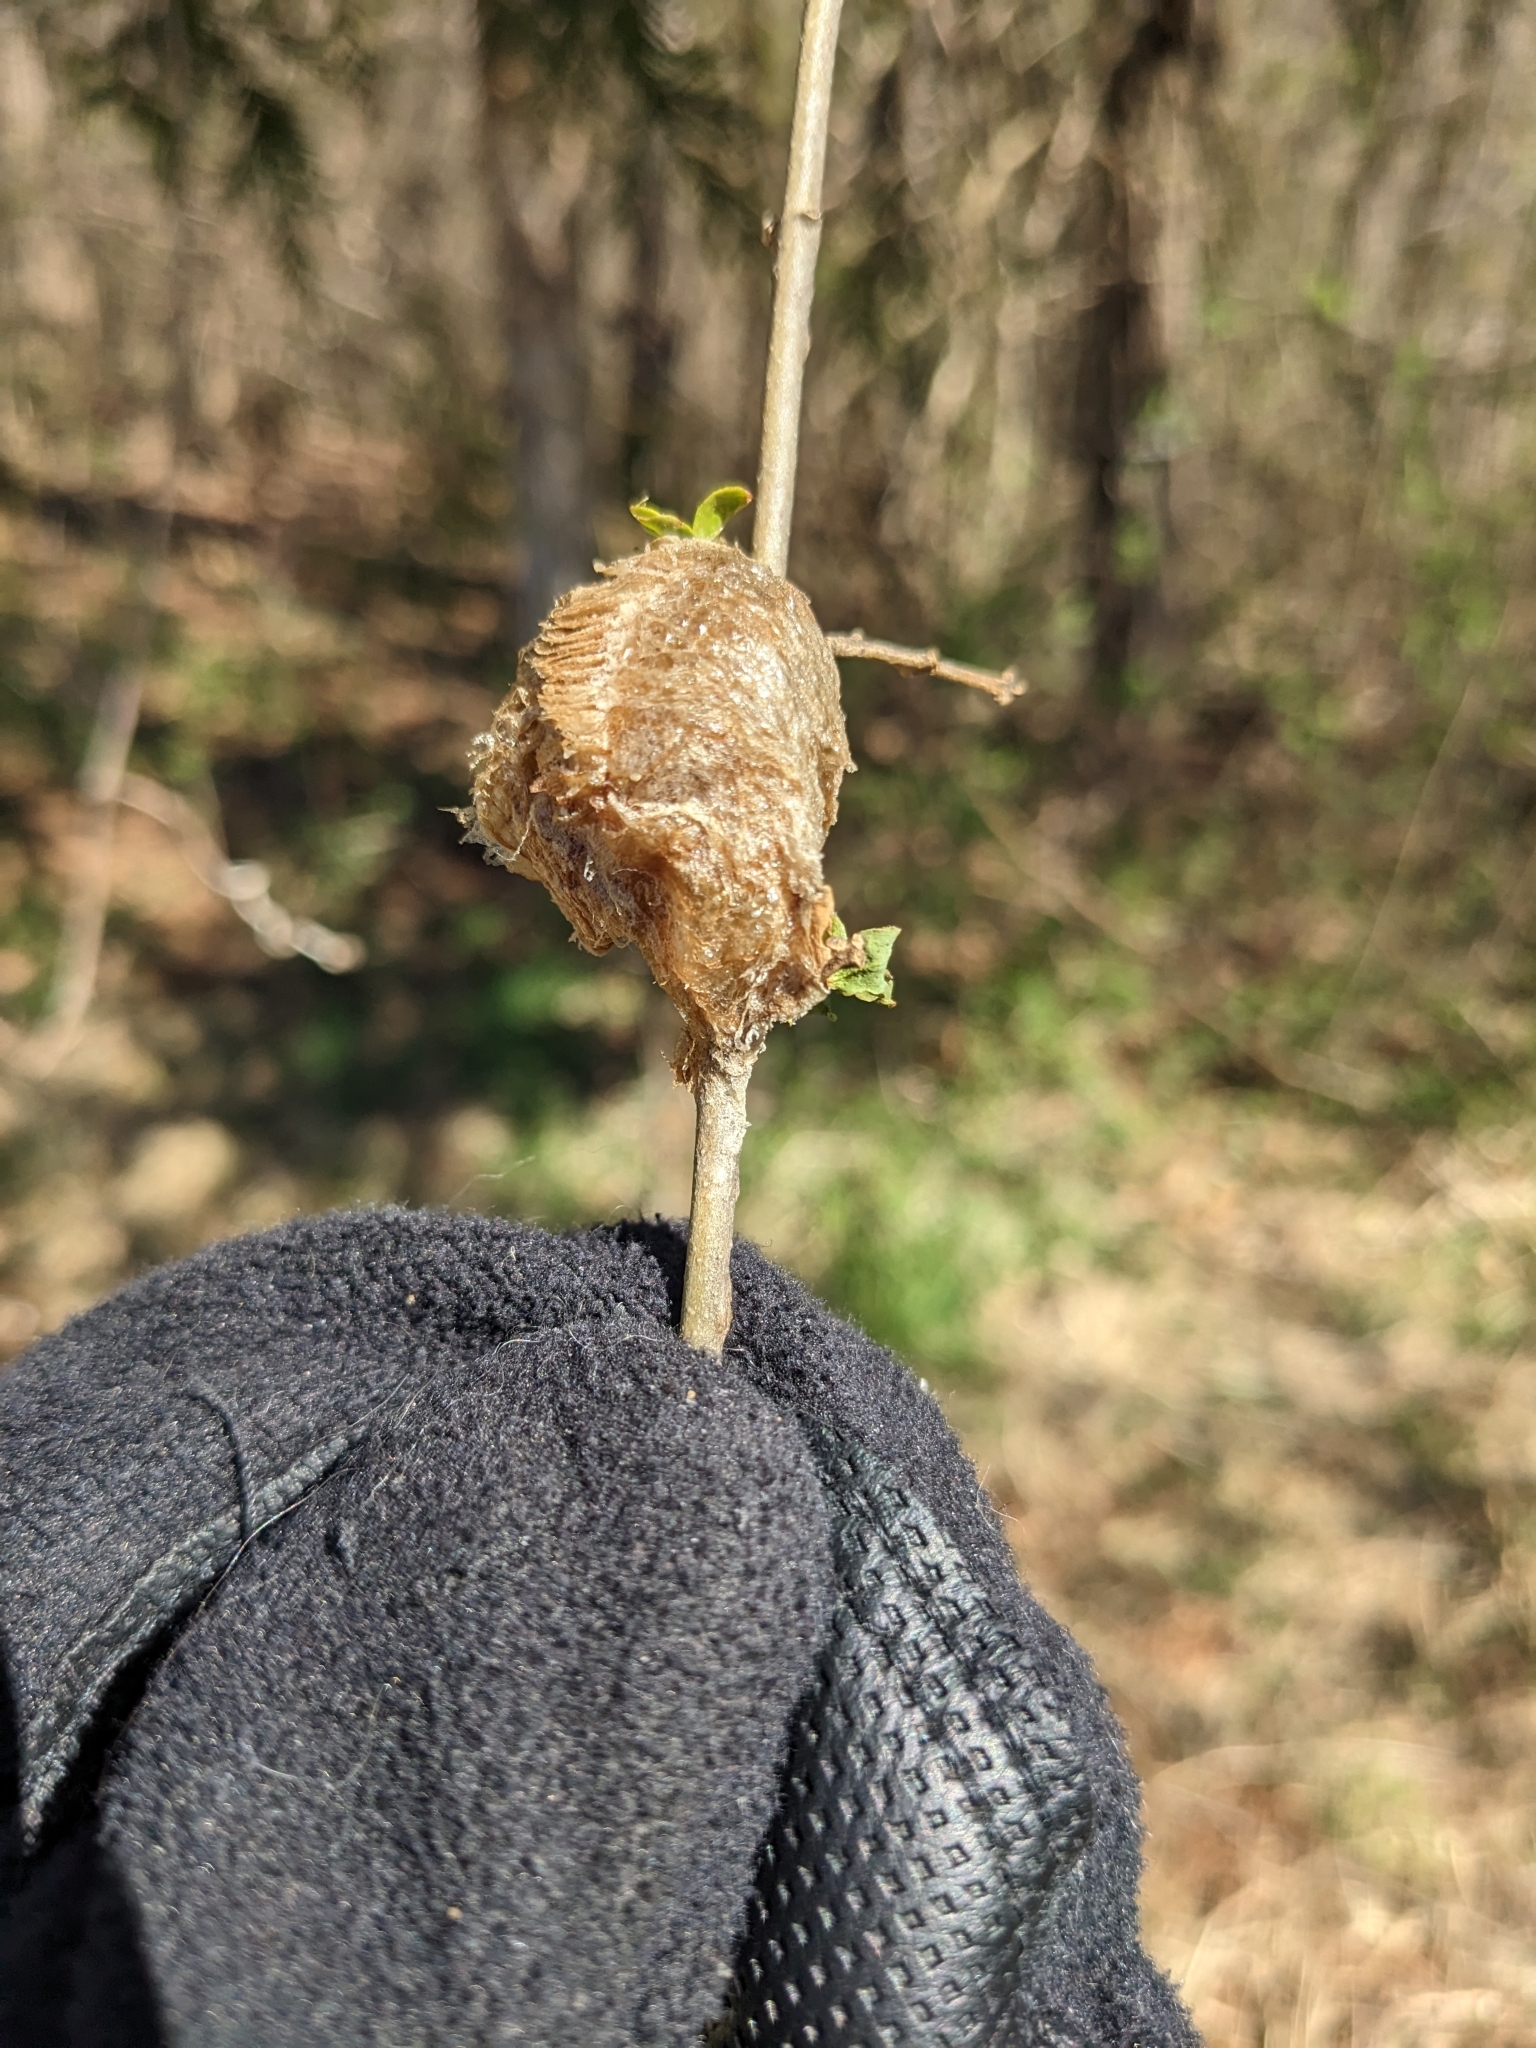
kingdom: Animalia
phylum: Arthropoda
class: Insecta
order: Mantodea
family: Mantidae
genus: Tenodera
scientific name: Tenodera sinensis
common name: Chinese mantis
